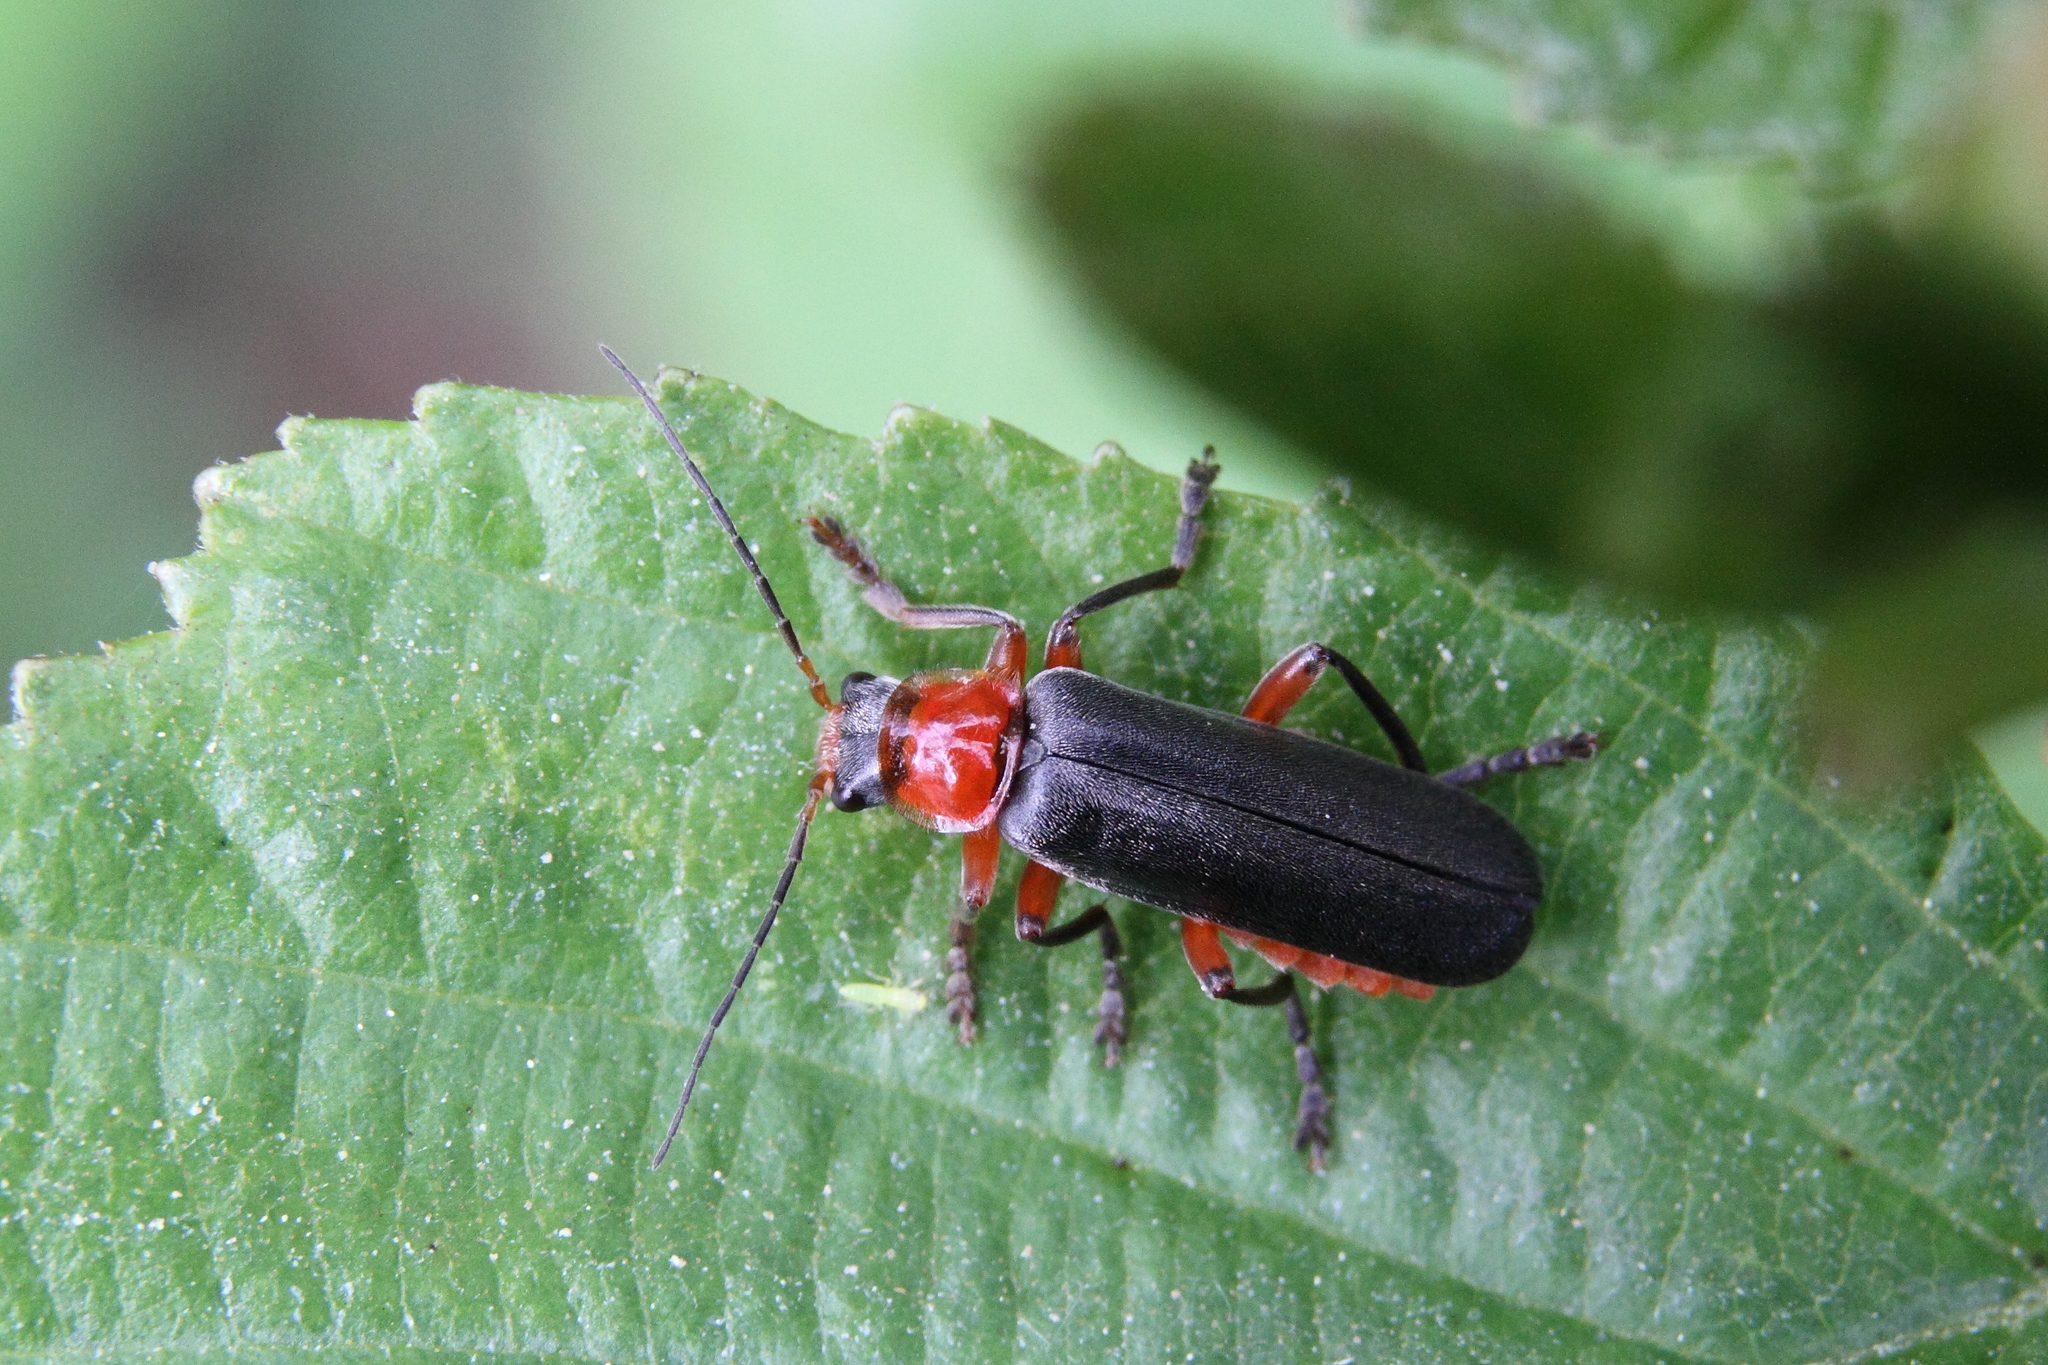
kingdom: Animalia
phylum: Arthropoda
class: Insecta
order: Coleoptera
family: Cantharidae
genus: Cantharis
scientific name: Cantharis pellucida
